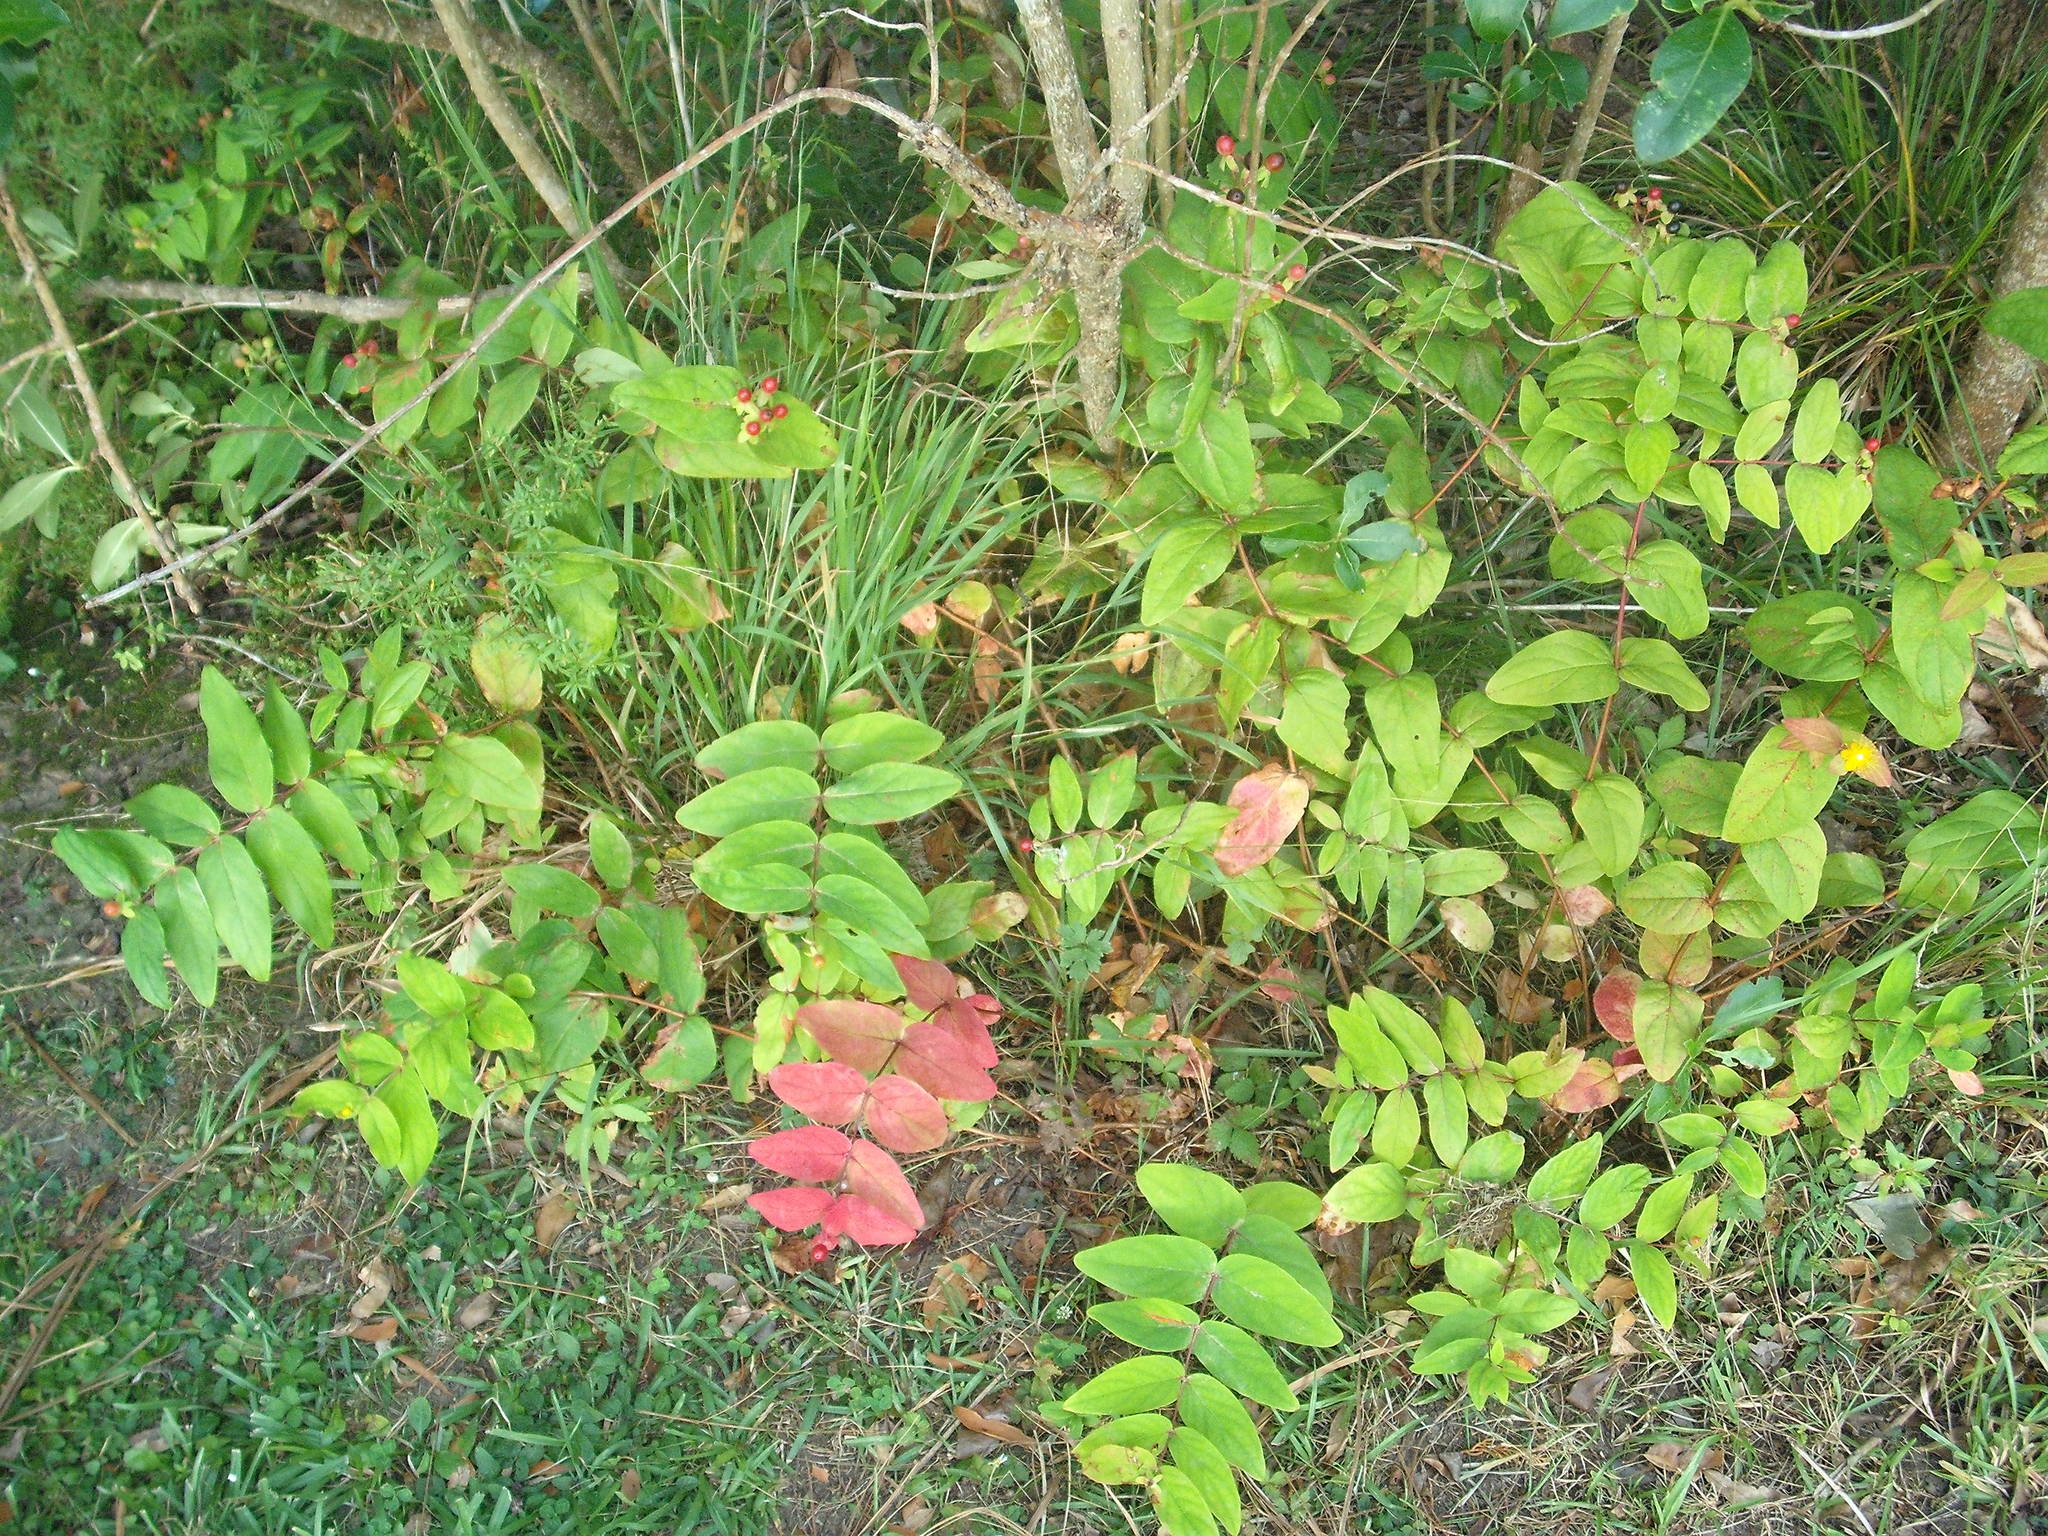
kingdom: Plantae
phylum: Tracheophyta
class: Magnoliopsida
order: Malpighiales
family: Hypericaceae
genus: Hypericum
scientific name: Hypericum androsaemum
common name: Sweet-amber
